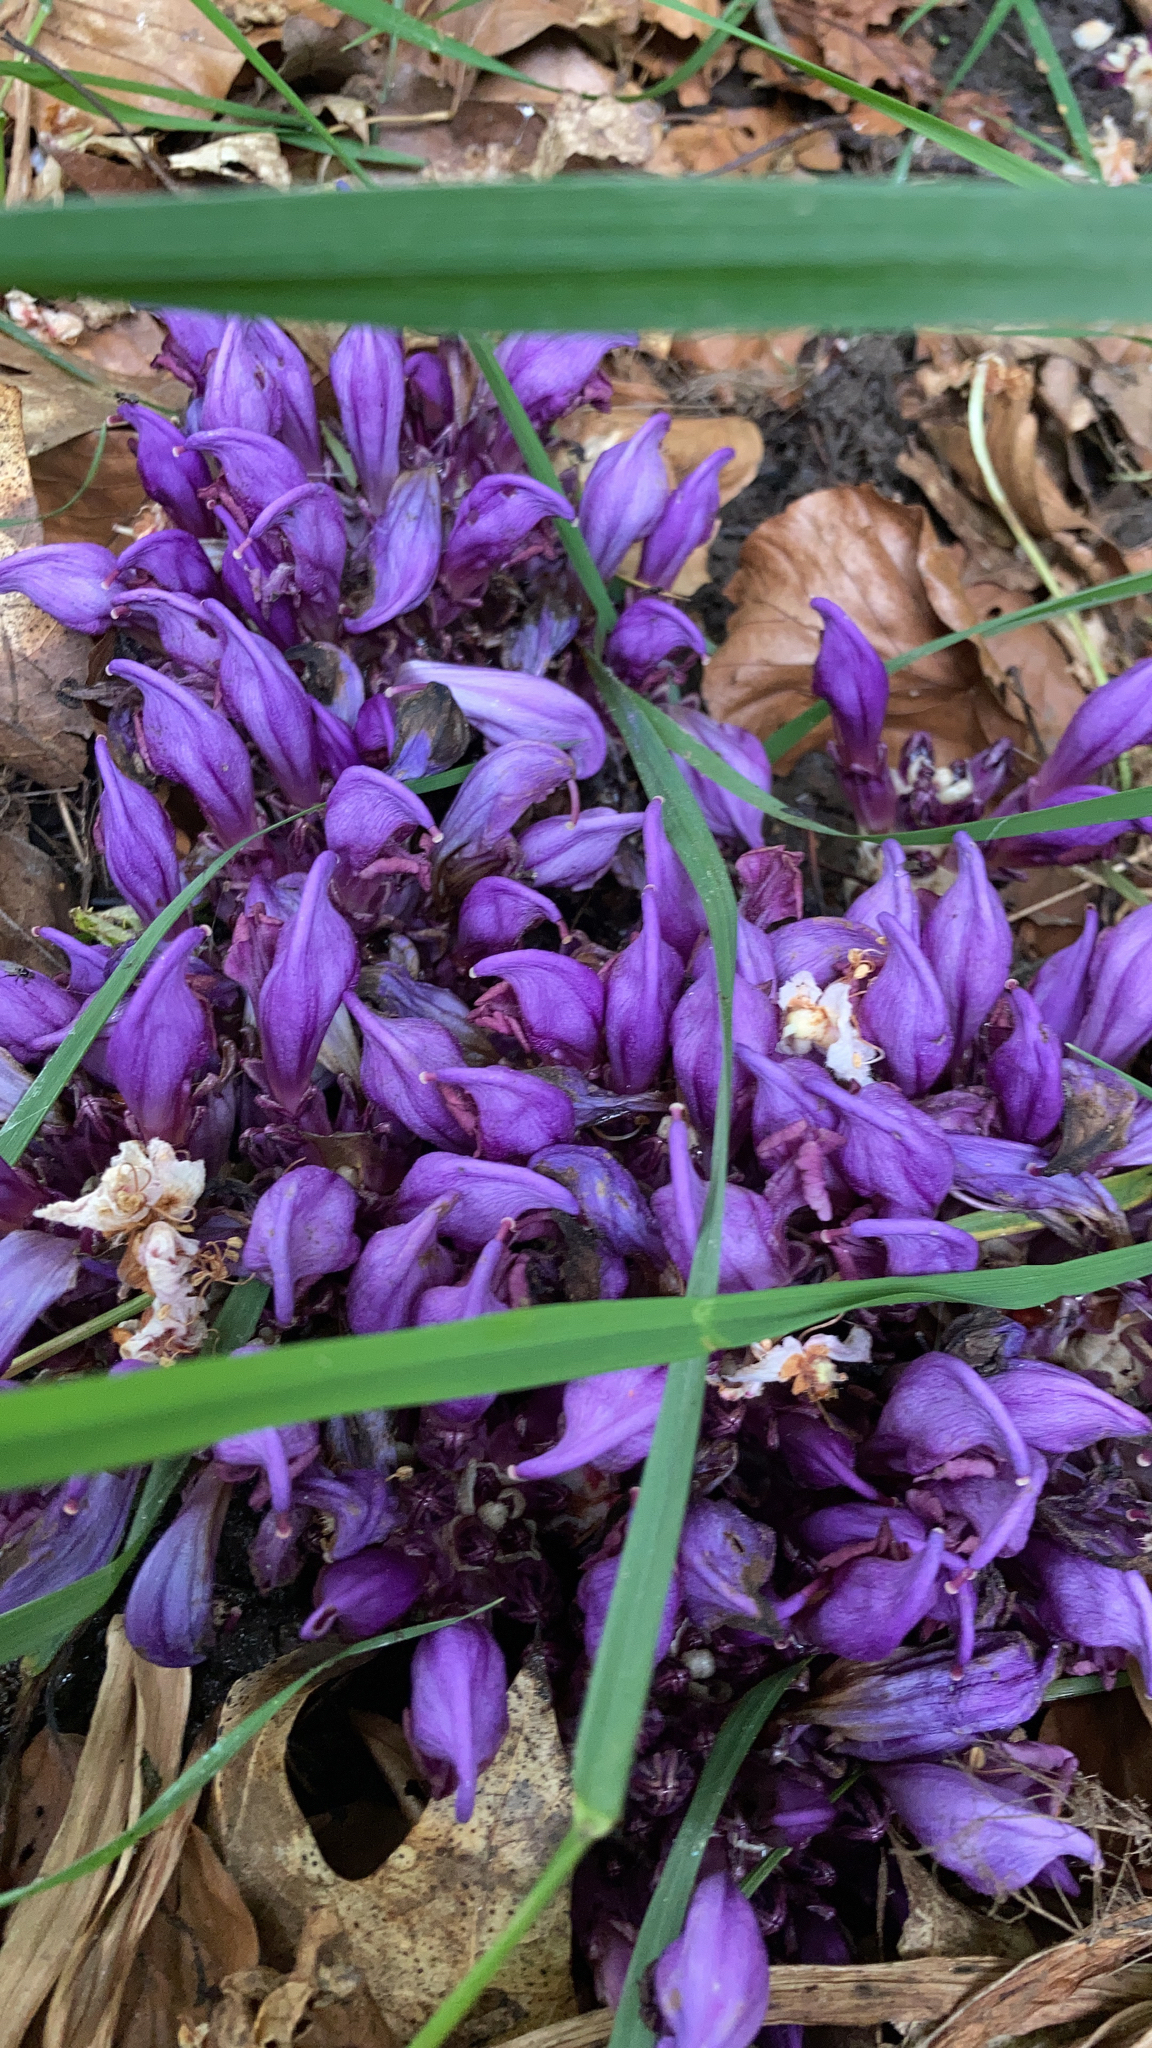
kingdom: Plantae
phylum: Tracheophyta
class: Magnoliopsida
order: Lamiales
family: Orobanchaceae
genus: Lathraea
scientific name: Lathraea clandestina
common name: Purple toothwort
